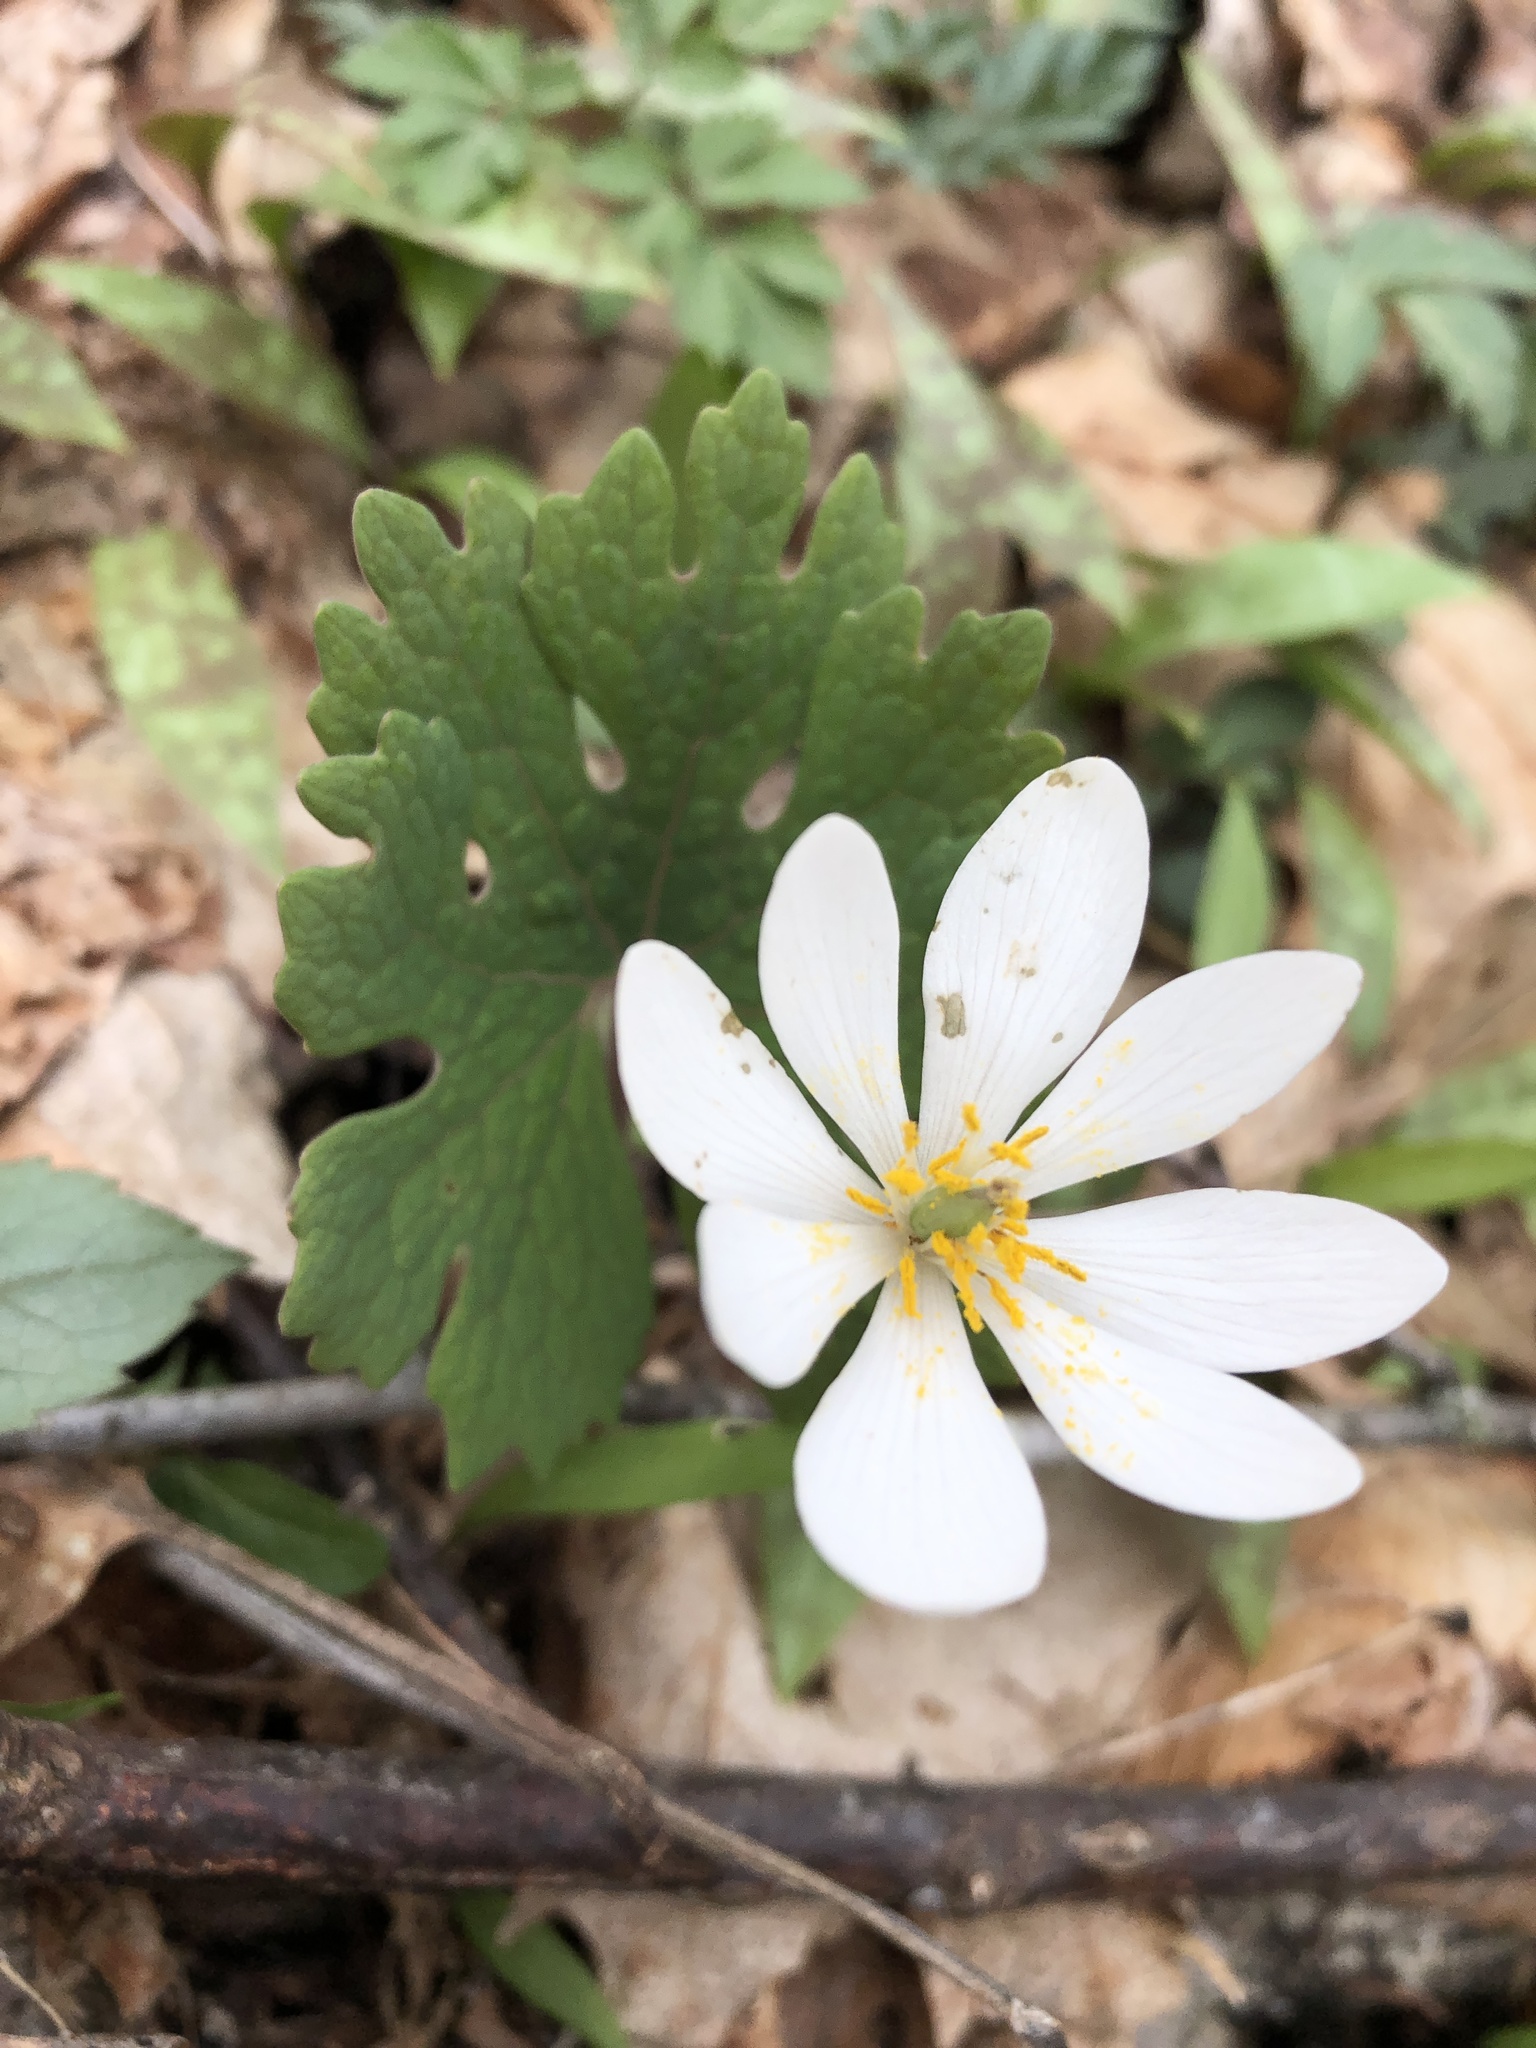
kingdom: Plantae
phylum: Tracheophyta
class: Magnoliopsida
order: Ranunculales
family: Papaveraceae
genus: Sanguinaria
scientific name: Sanguinaria canadensis
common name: Bloodroot
